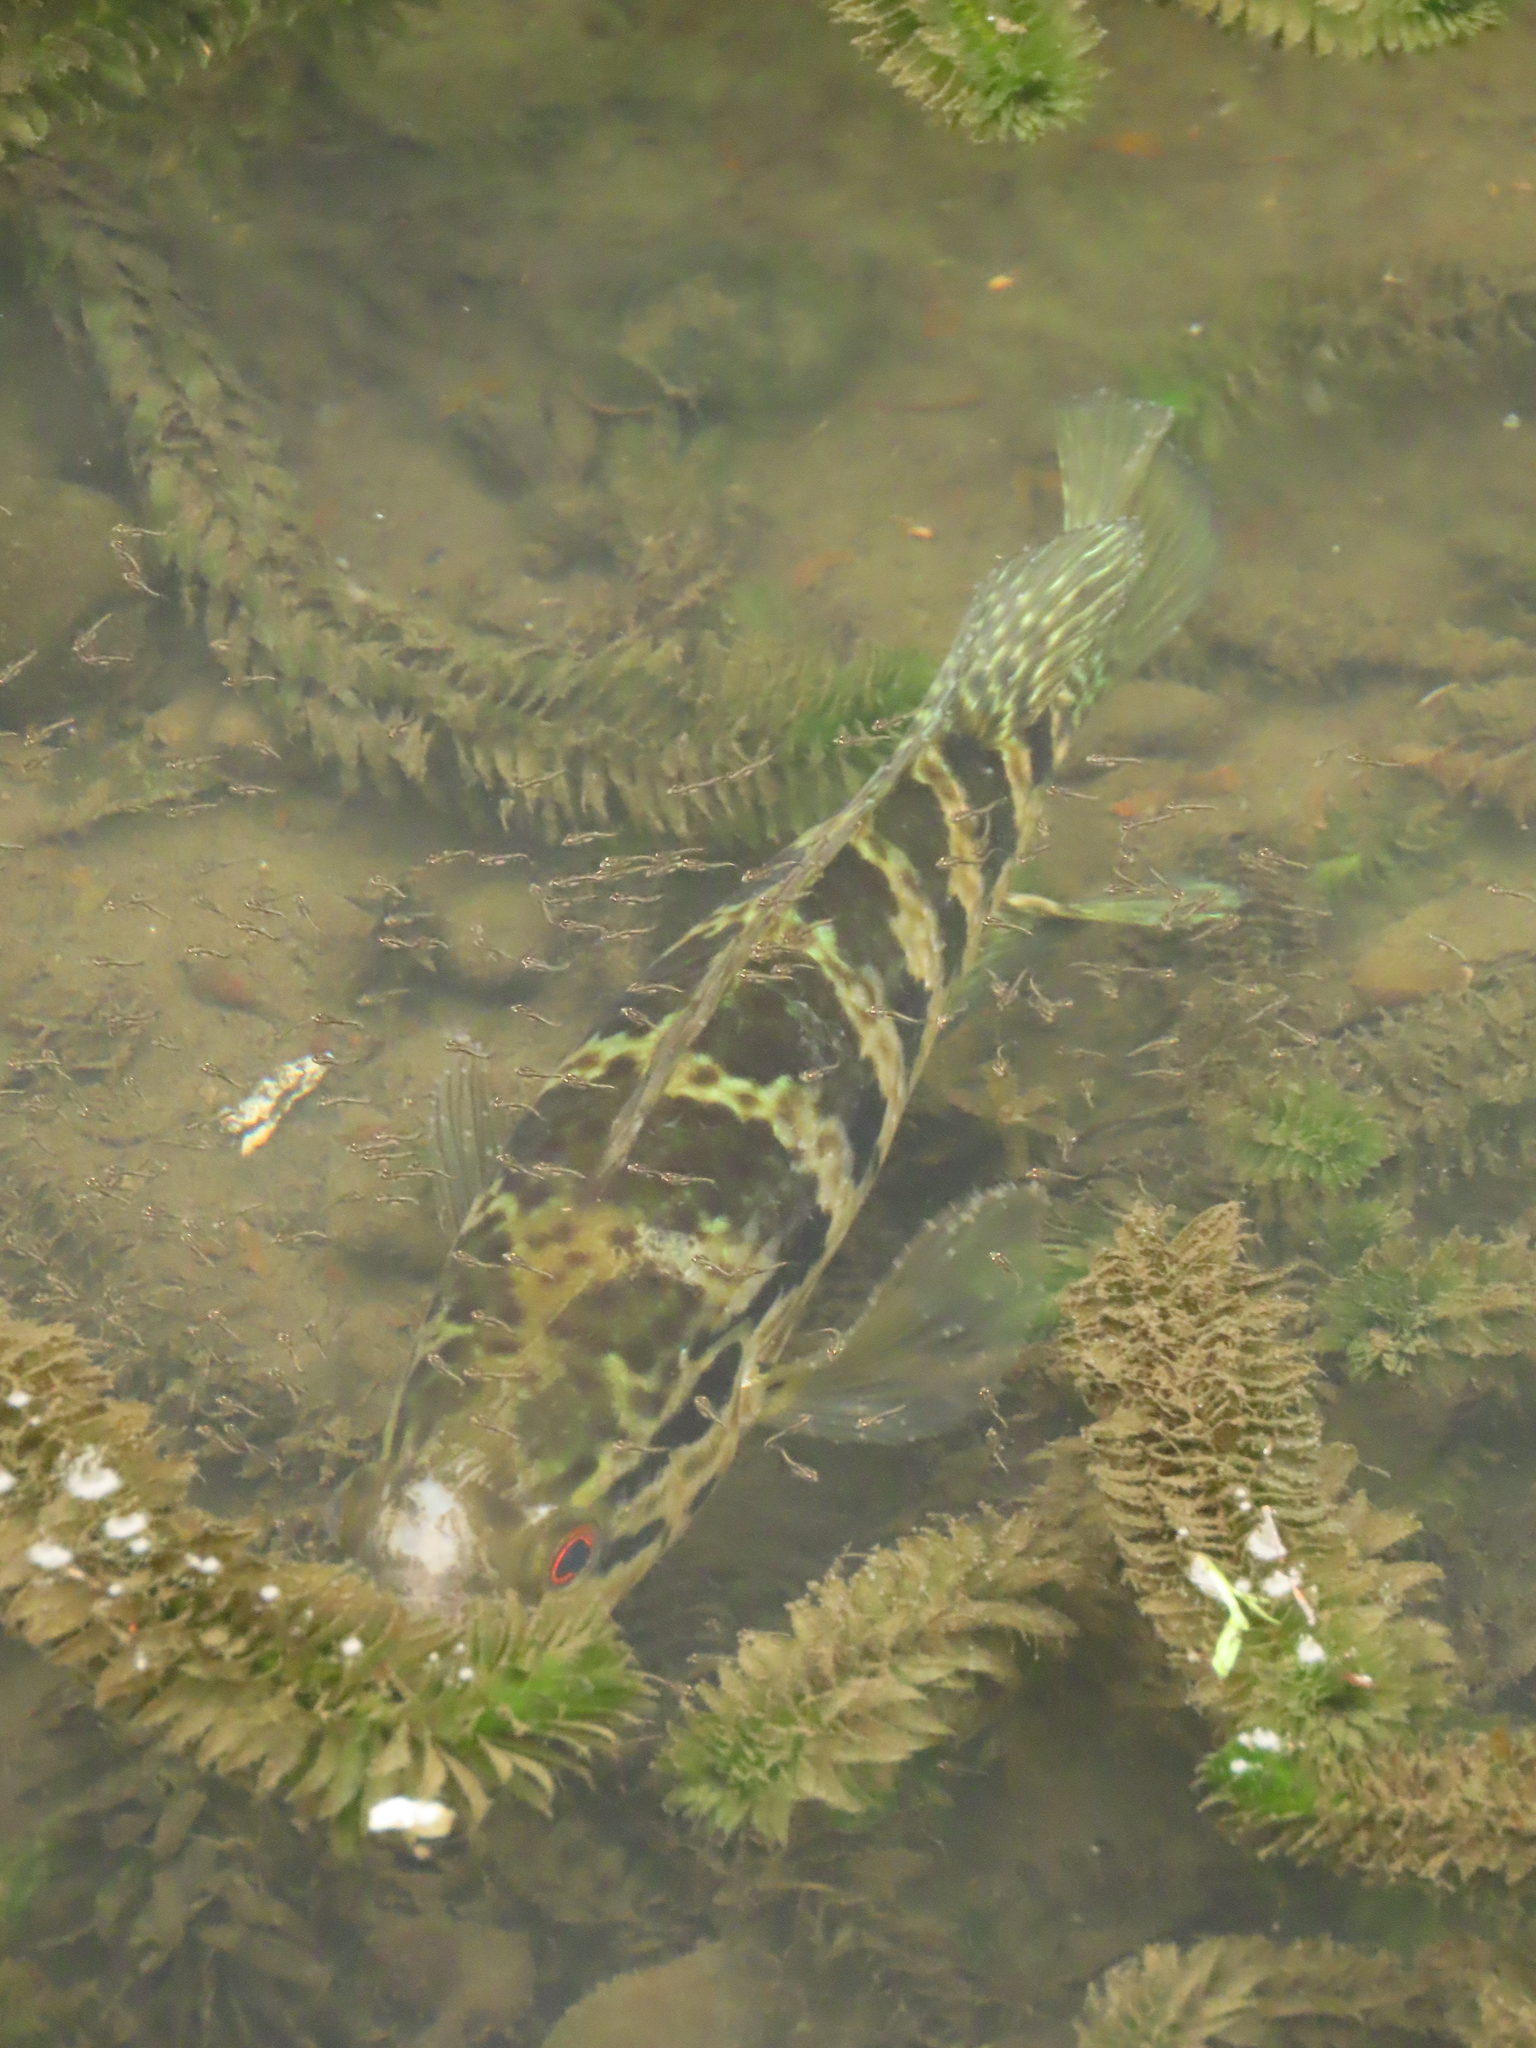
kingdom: Animalia
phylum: Chordata
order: Perciformes
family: Cichlidae
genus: Parachromis
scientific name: Parachromis managuensis
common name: Jaguar guapote
